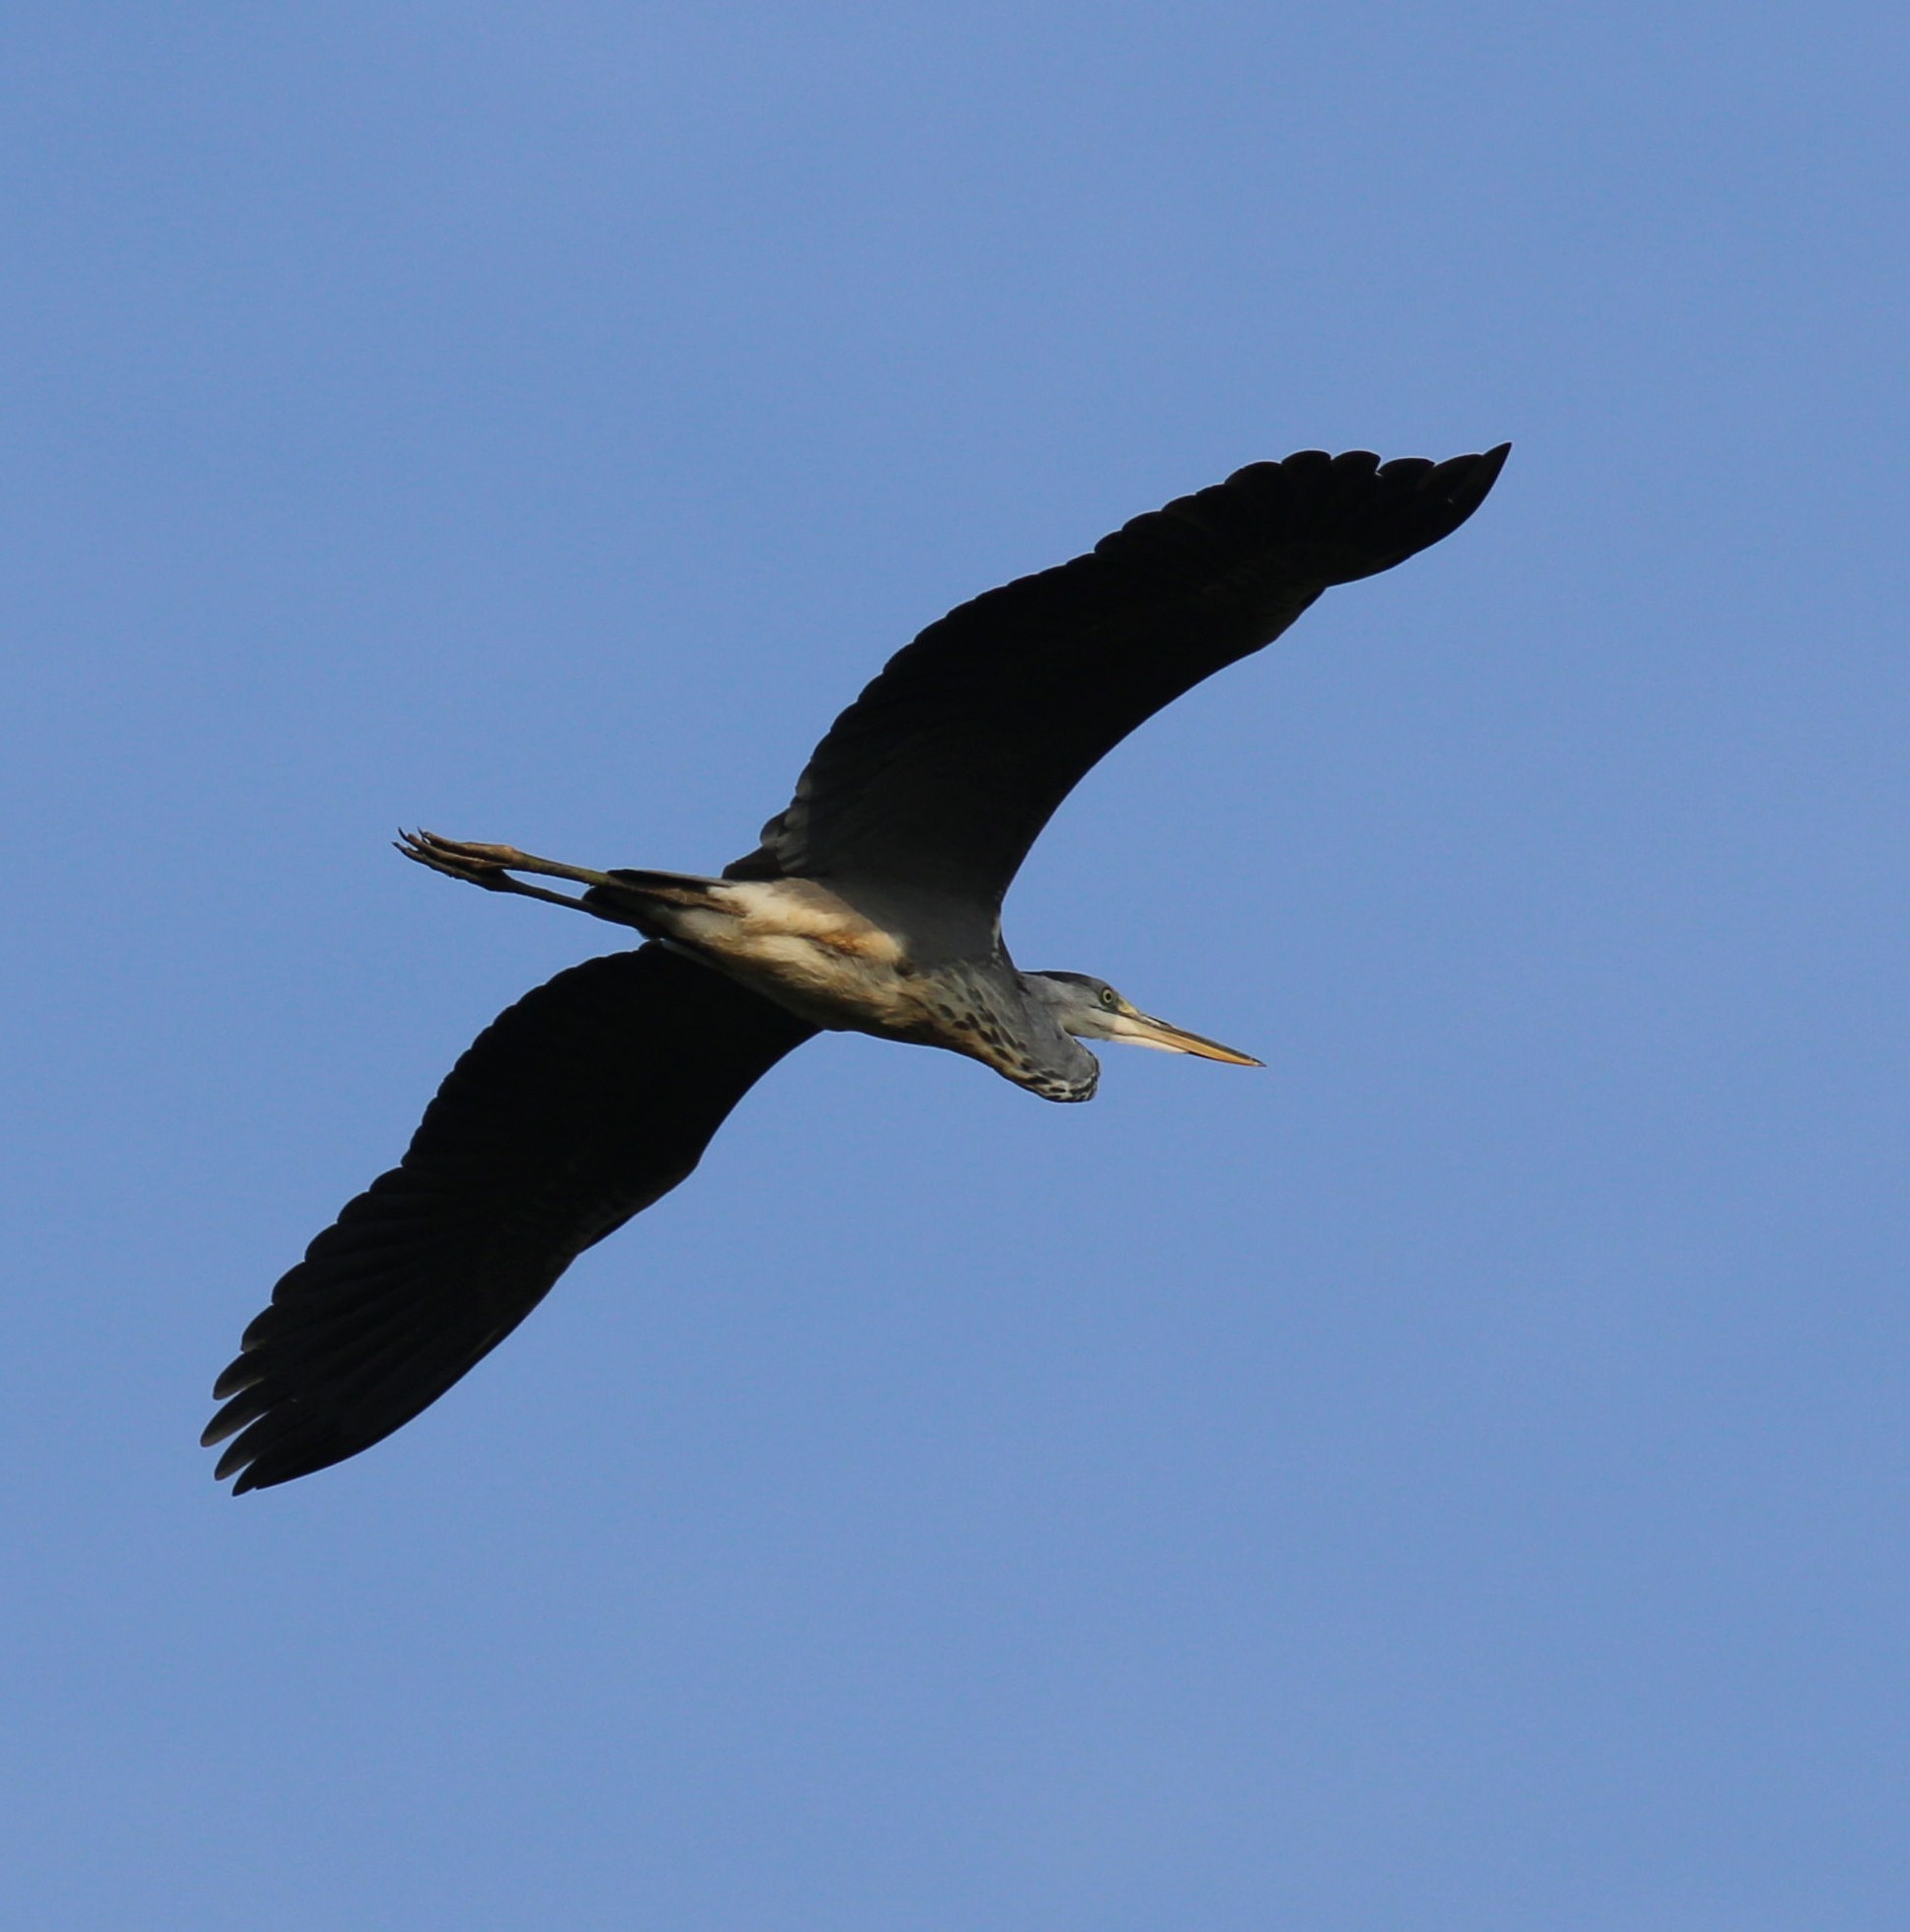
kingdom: Animalia
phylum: Chordata
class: Aves
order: Pelecaniformes
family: Ardeidae
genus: Ardea
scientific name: Ardea cinerea
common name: Grey heron
